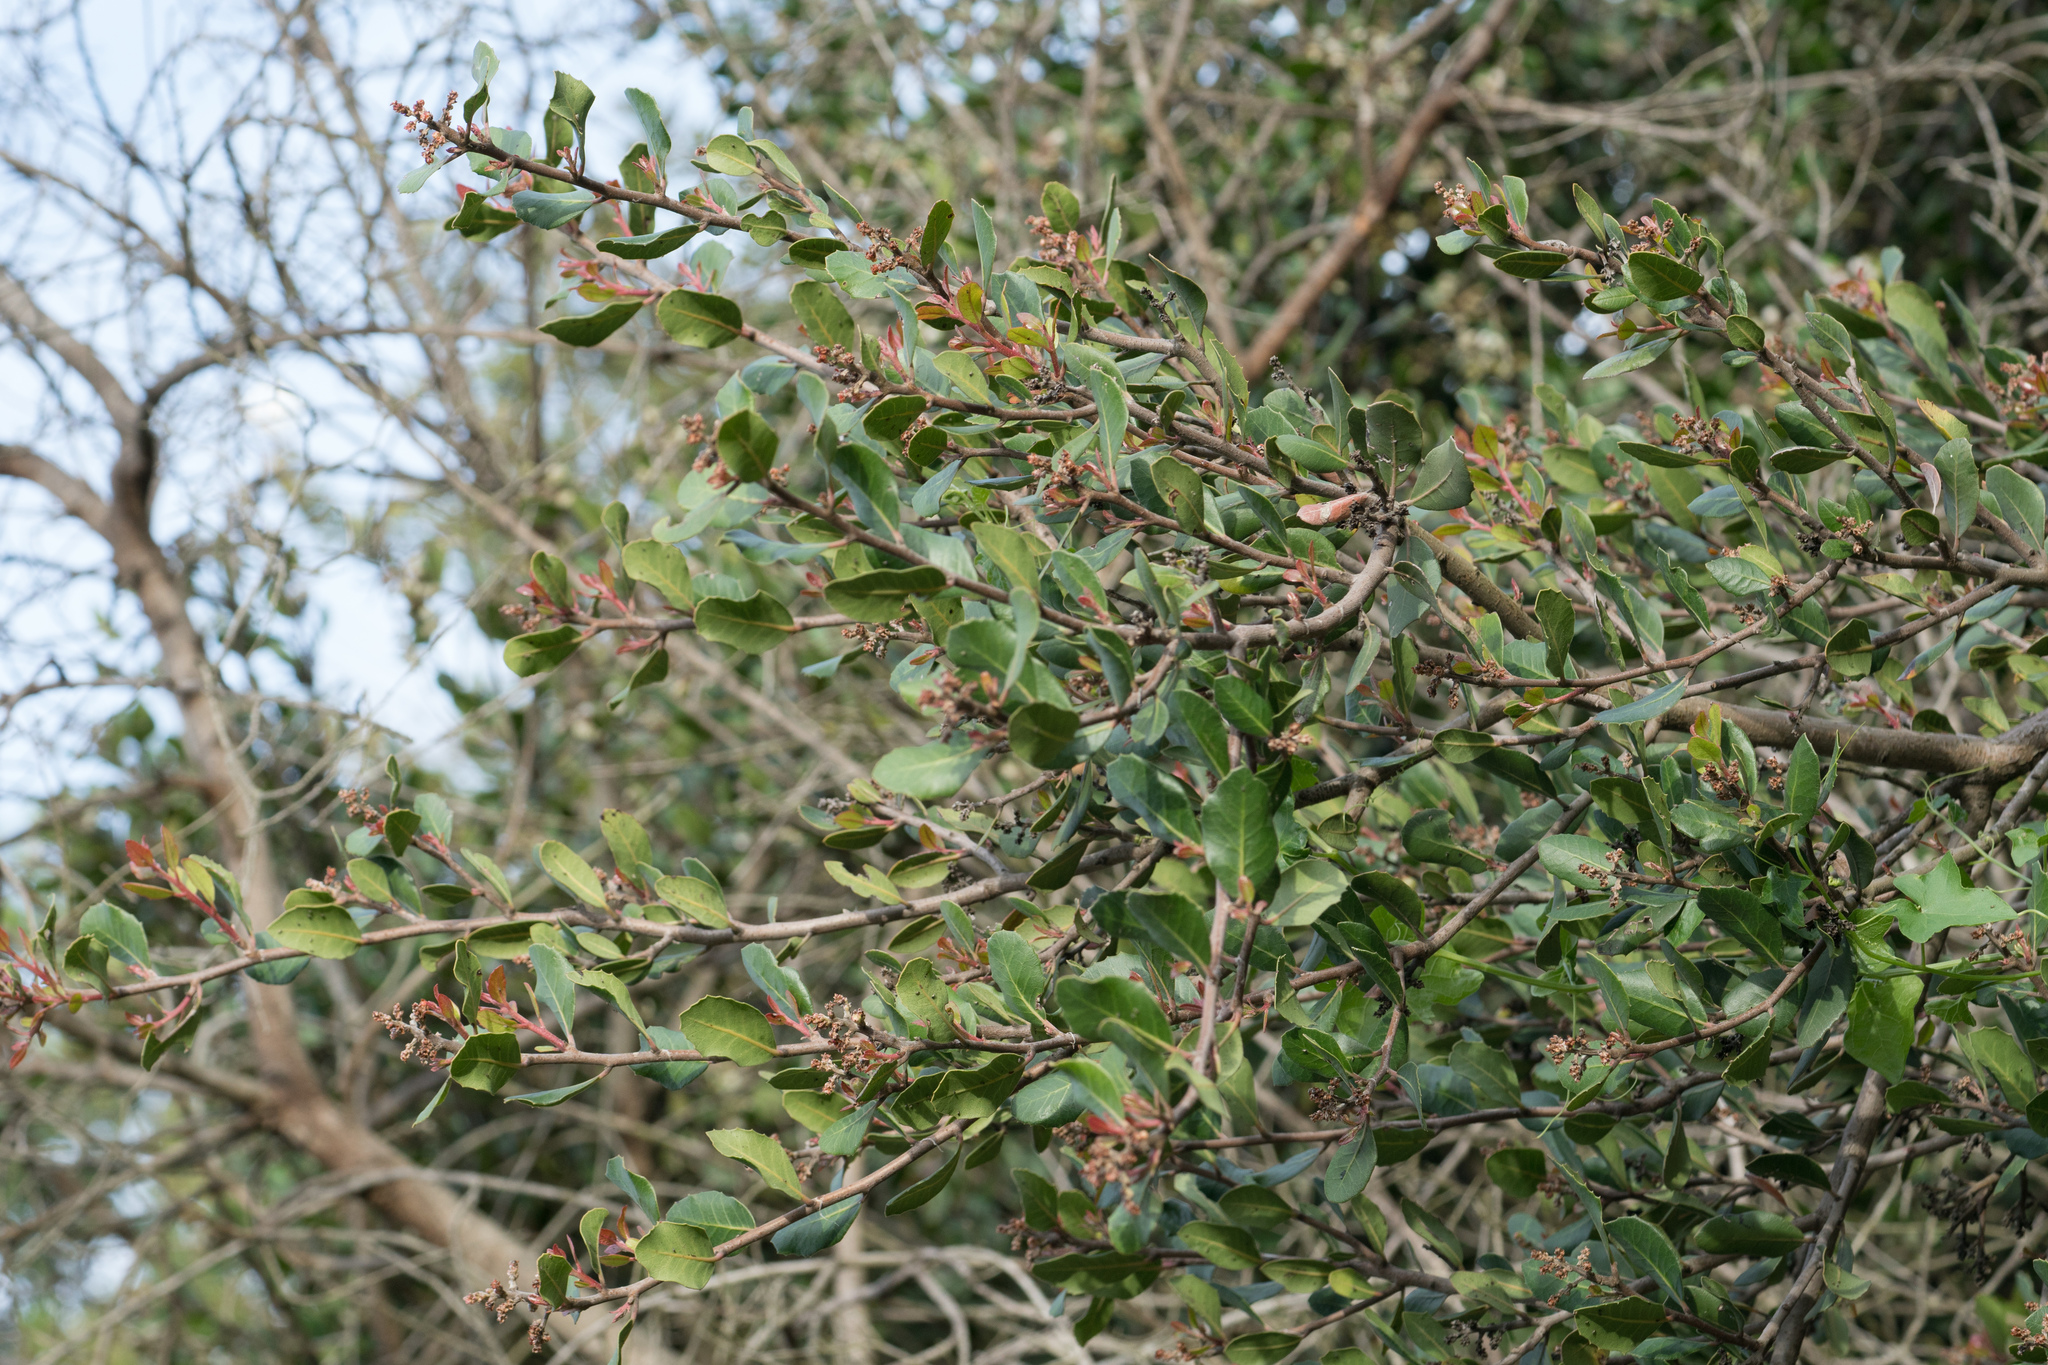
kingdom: Plantae
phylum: Tracheophyta
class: Magnoliopsida
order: Sapindales
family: Anacardiaceae
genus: Rhus
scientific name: Rhus integrifolia
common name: Lemonade sumac
